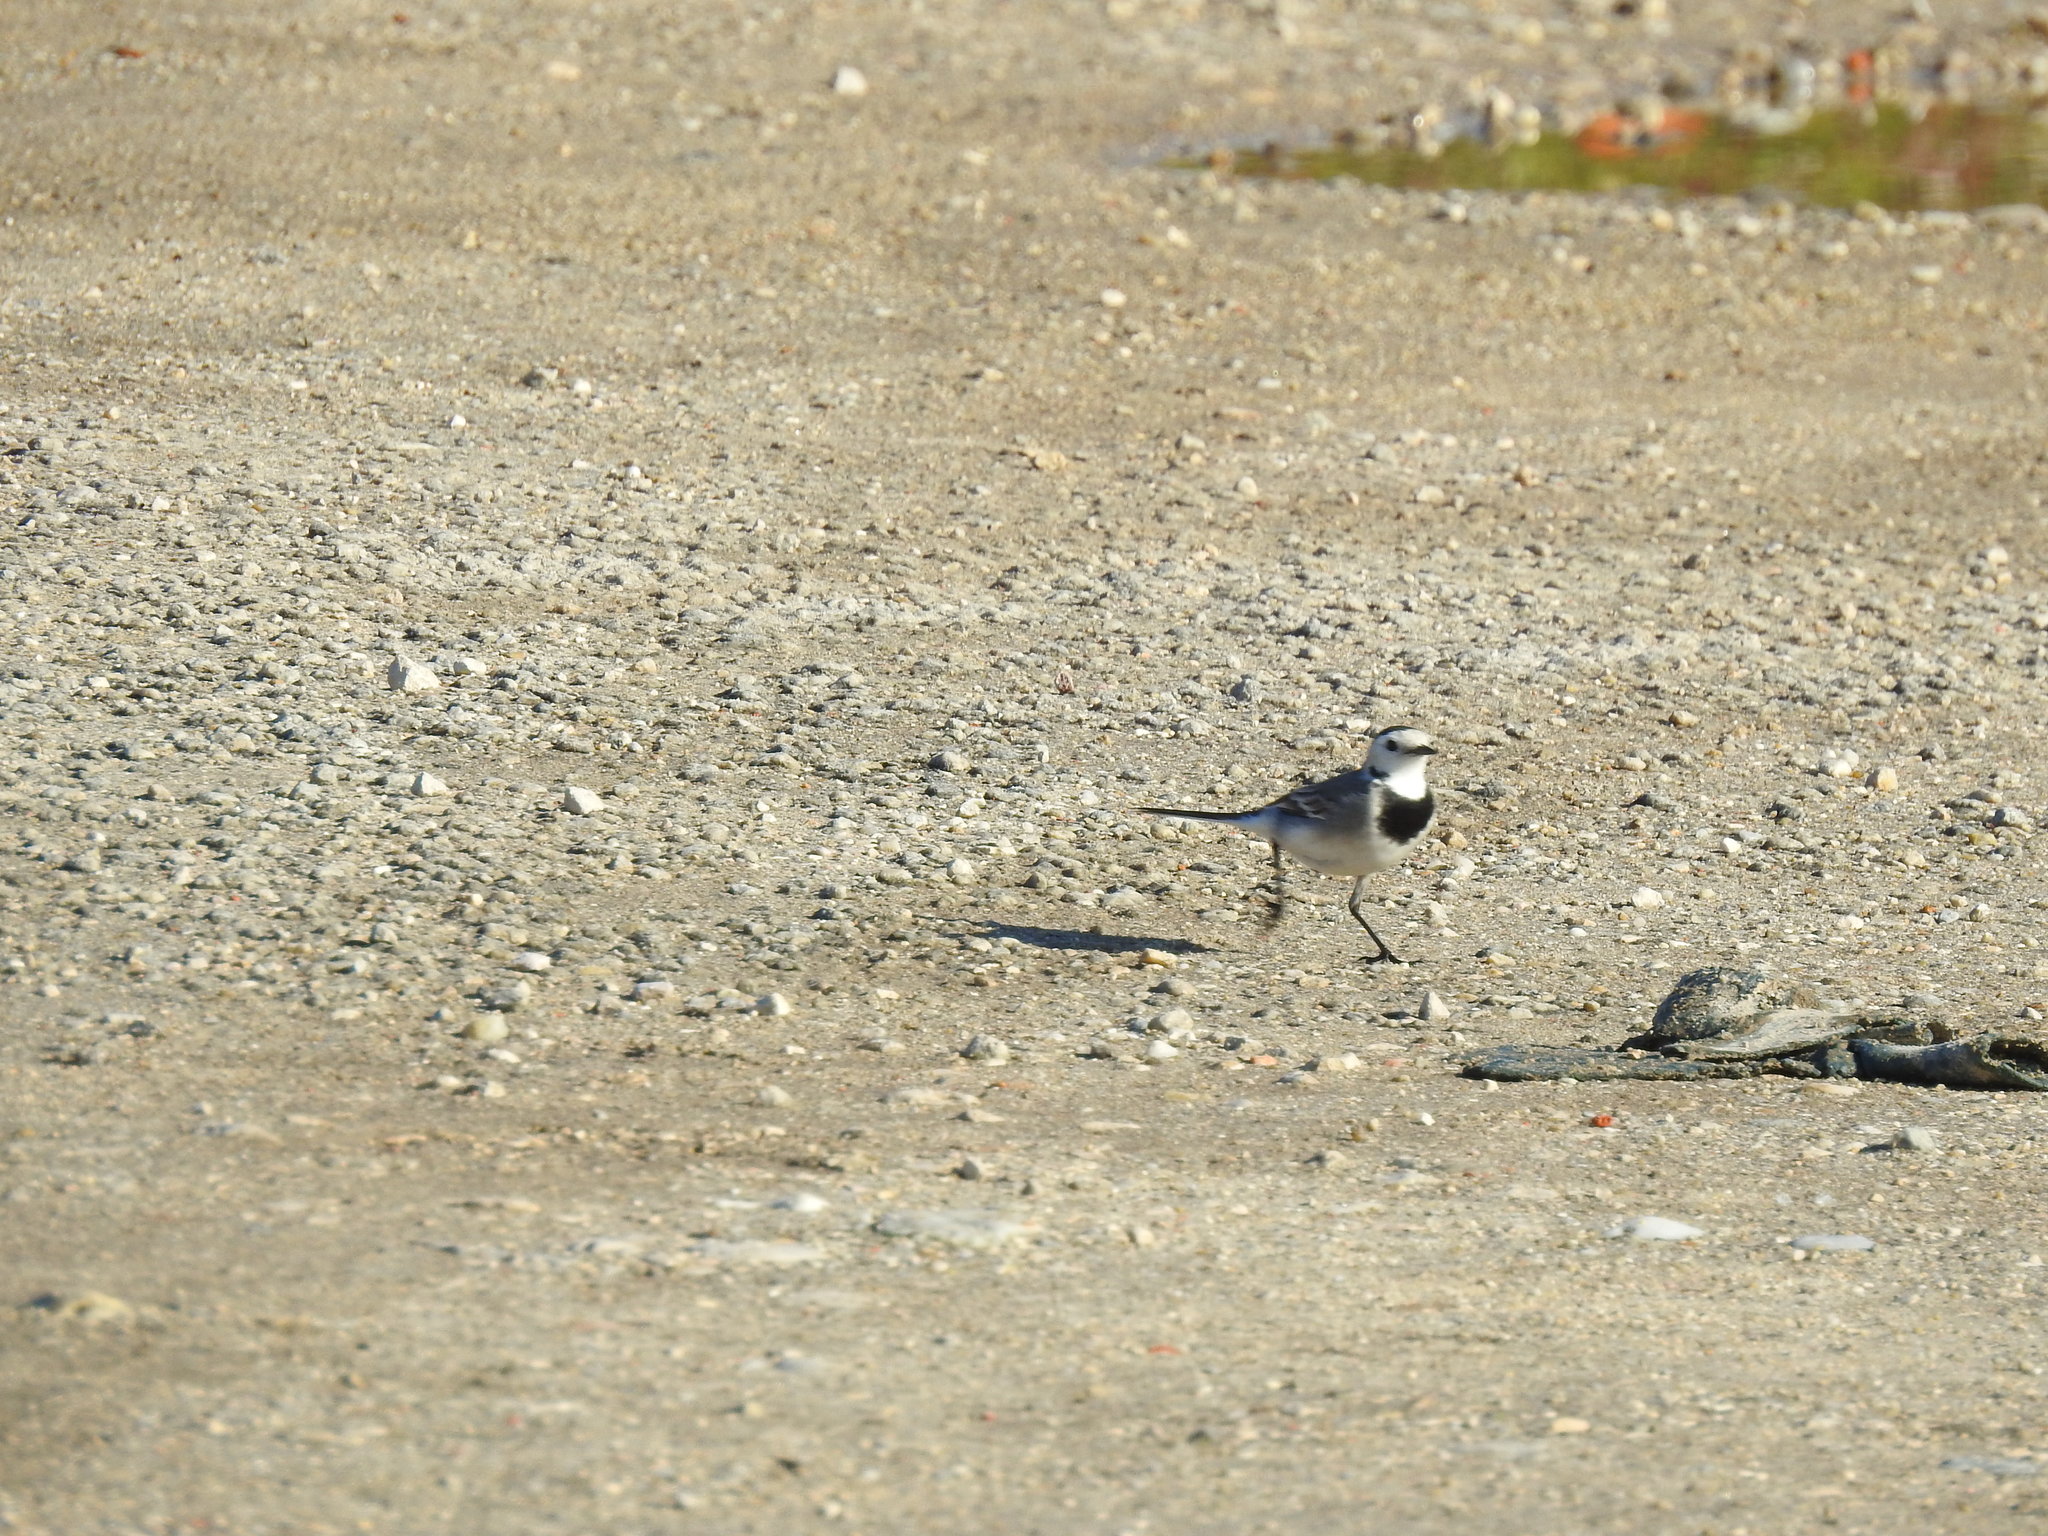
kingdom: Animalia
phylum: Chordata
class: Aves
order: Passeriformes
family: Motacillidae
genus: Motacilla
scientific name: Motacilla alba
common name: White wagtail
